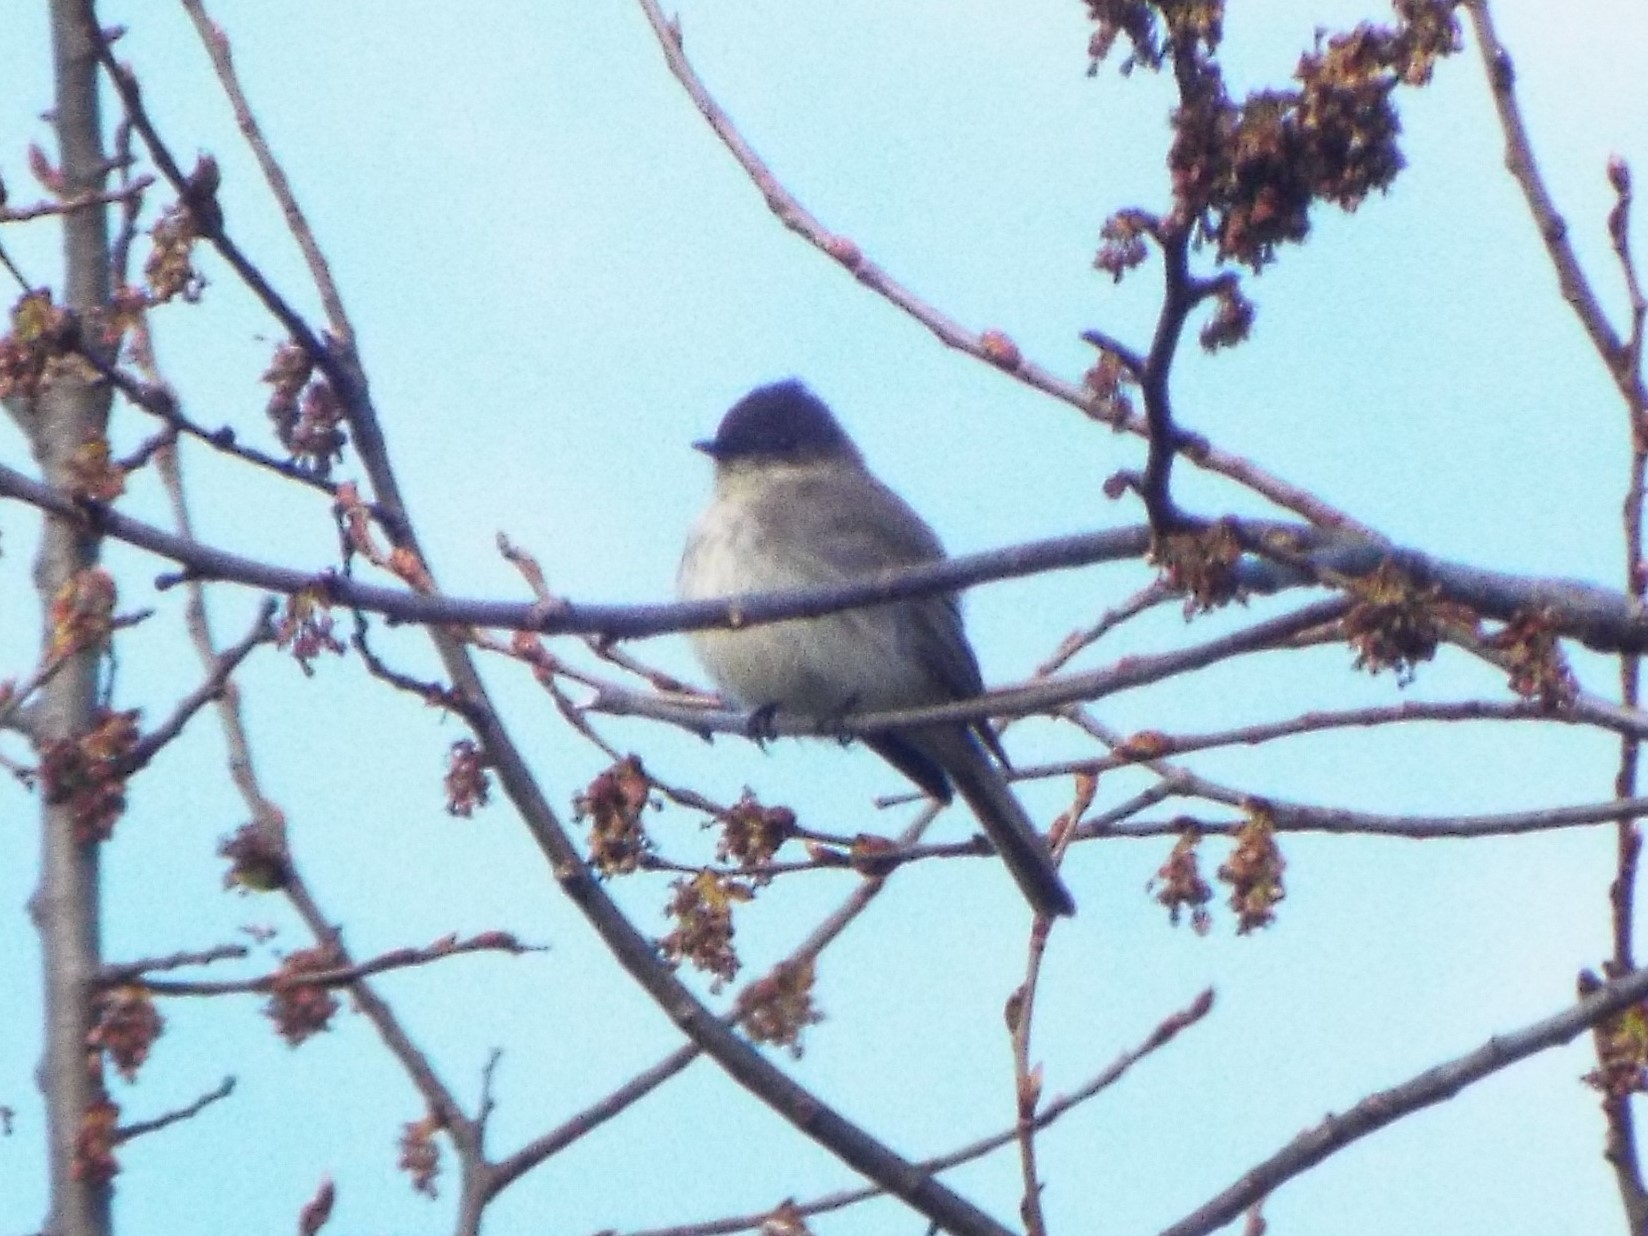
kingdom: Animalia
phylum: Chordata
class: Aves
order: Passeriformes
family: Tyrannidae
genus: Sayornis
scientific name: Sayornis phoebe
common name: Eastern phoebe
